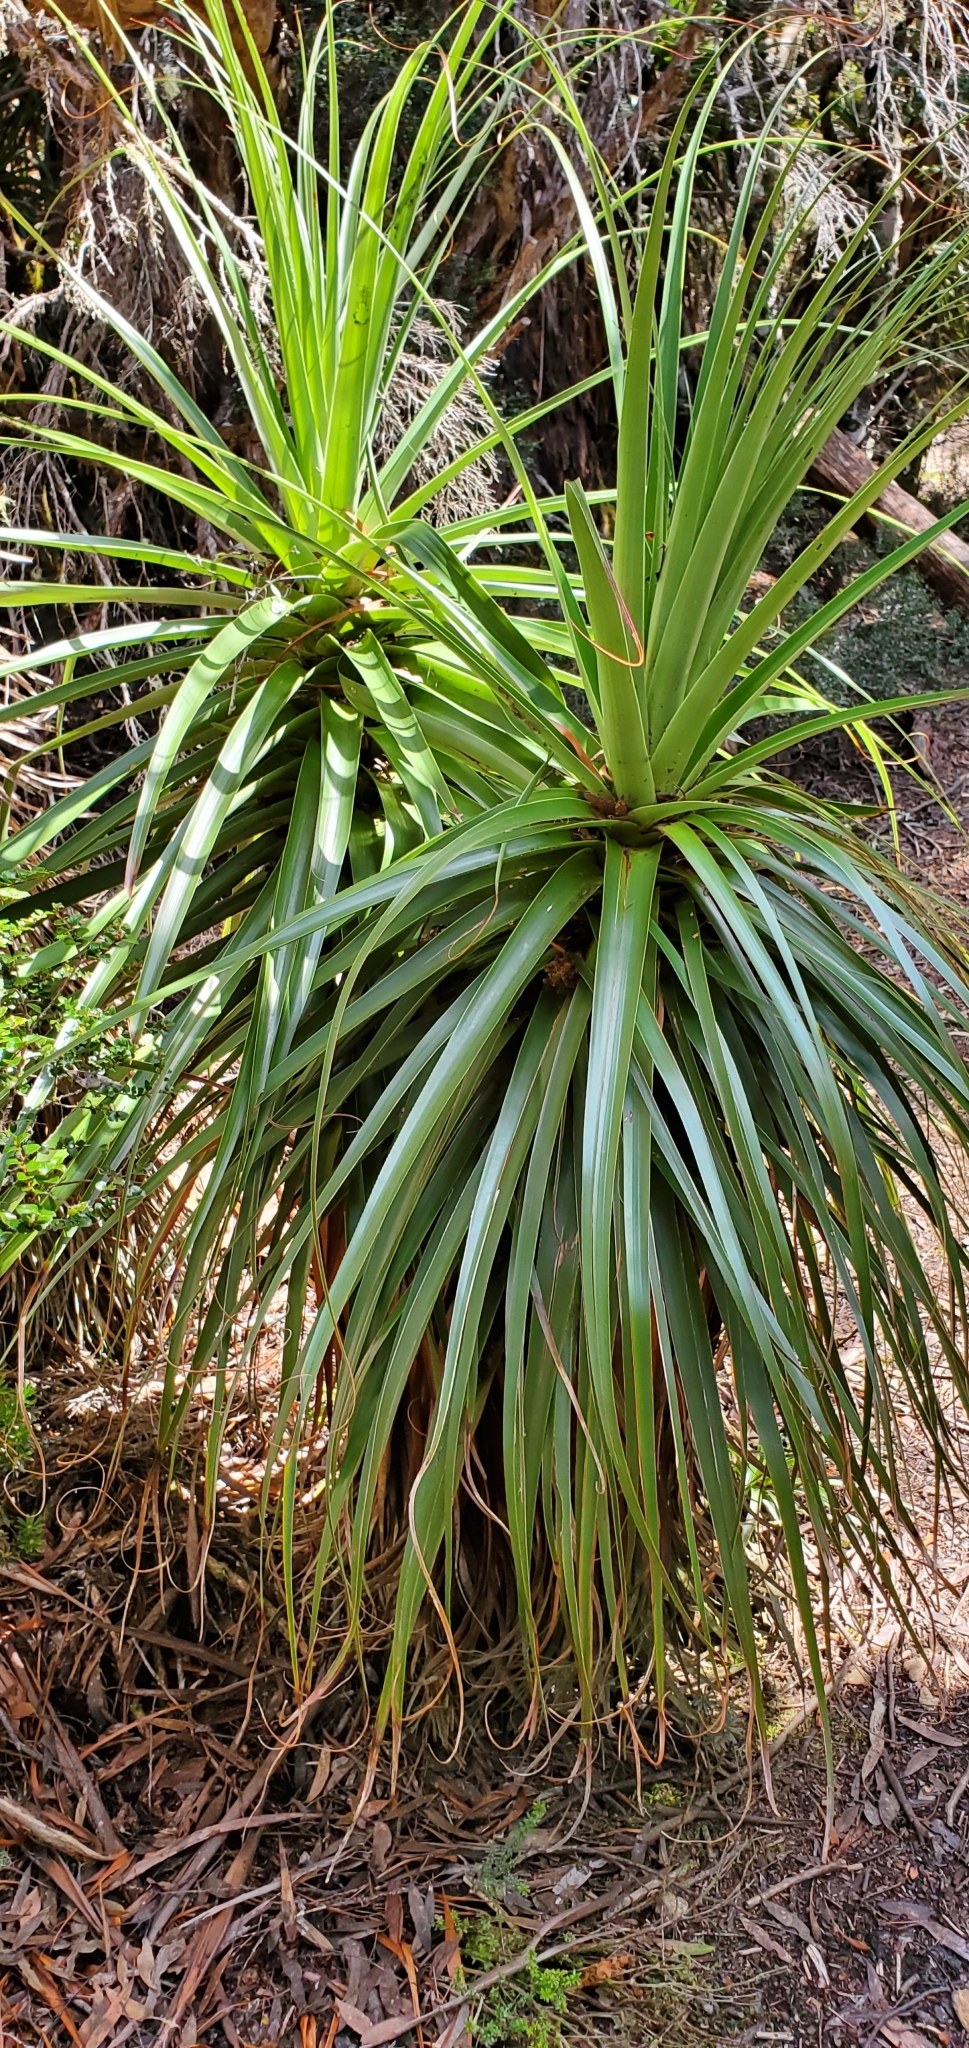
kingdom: Plantae
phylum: Tracheophyta
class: Magnoliopsida
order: Ericales
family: Ericaceae
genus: Dracophyllum
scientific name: Dracophyllum pandanifolium
